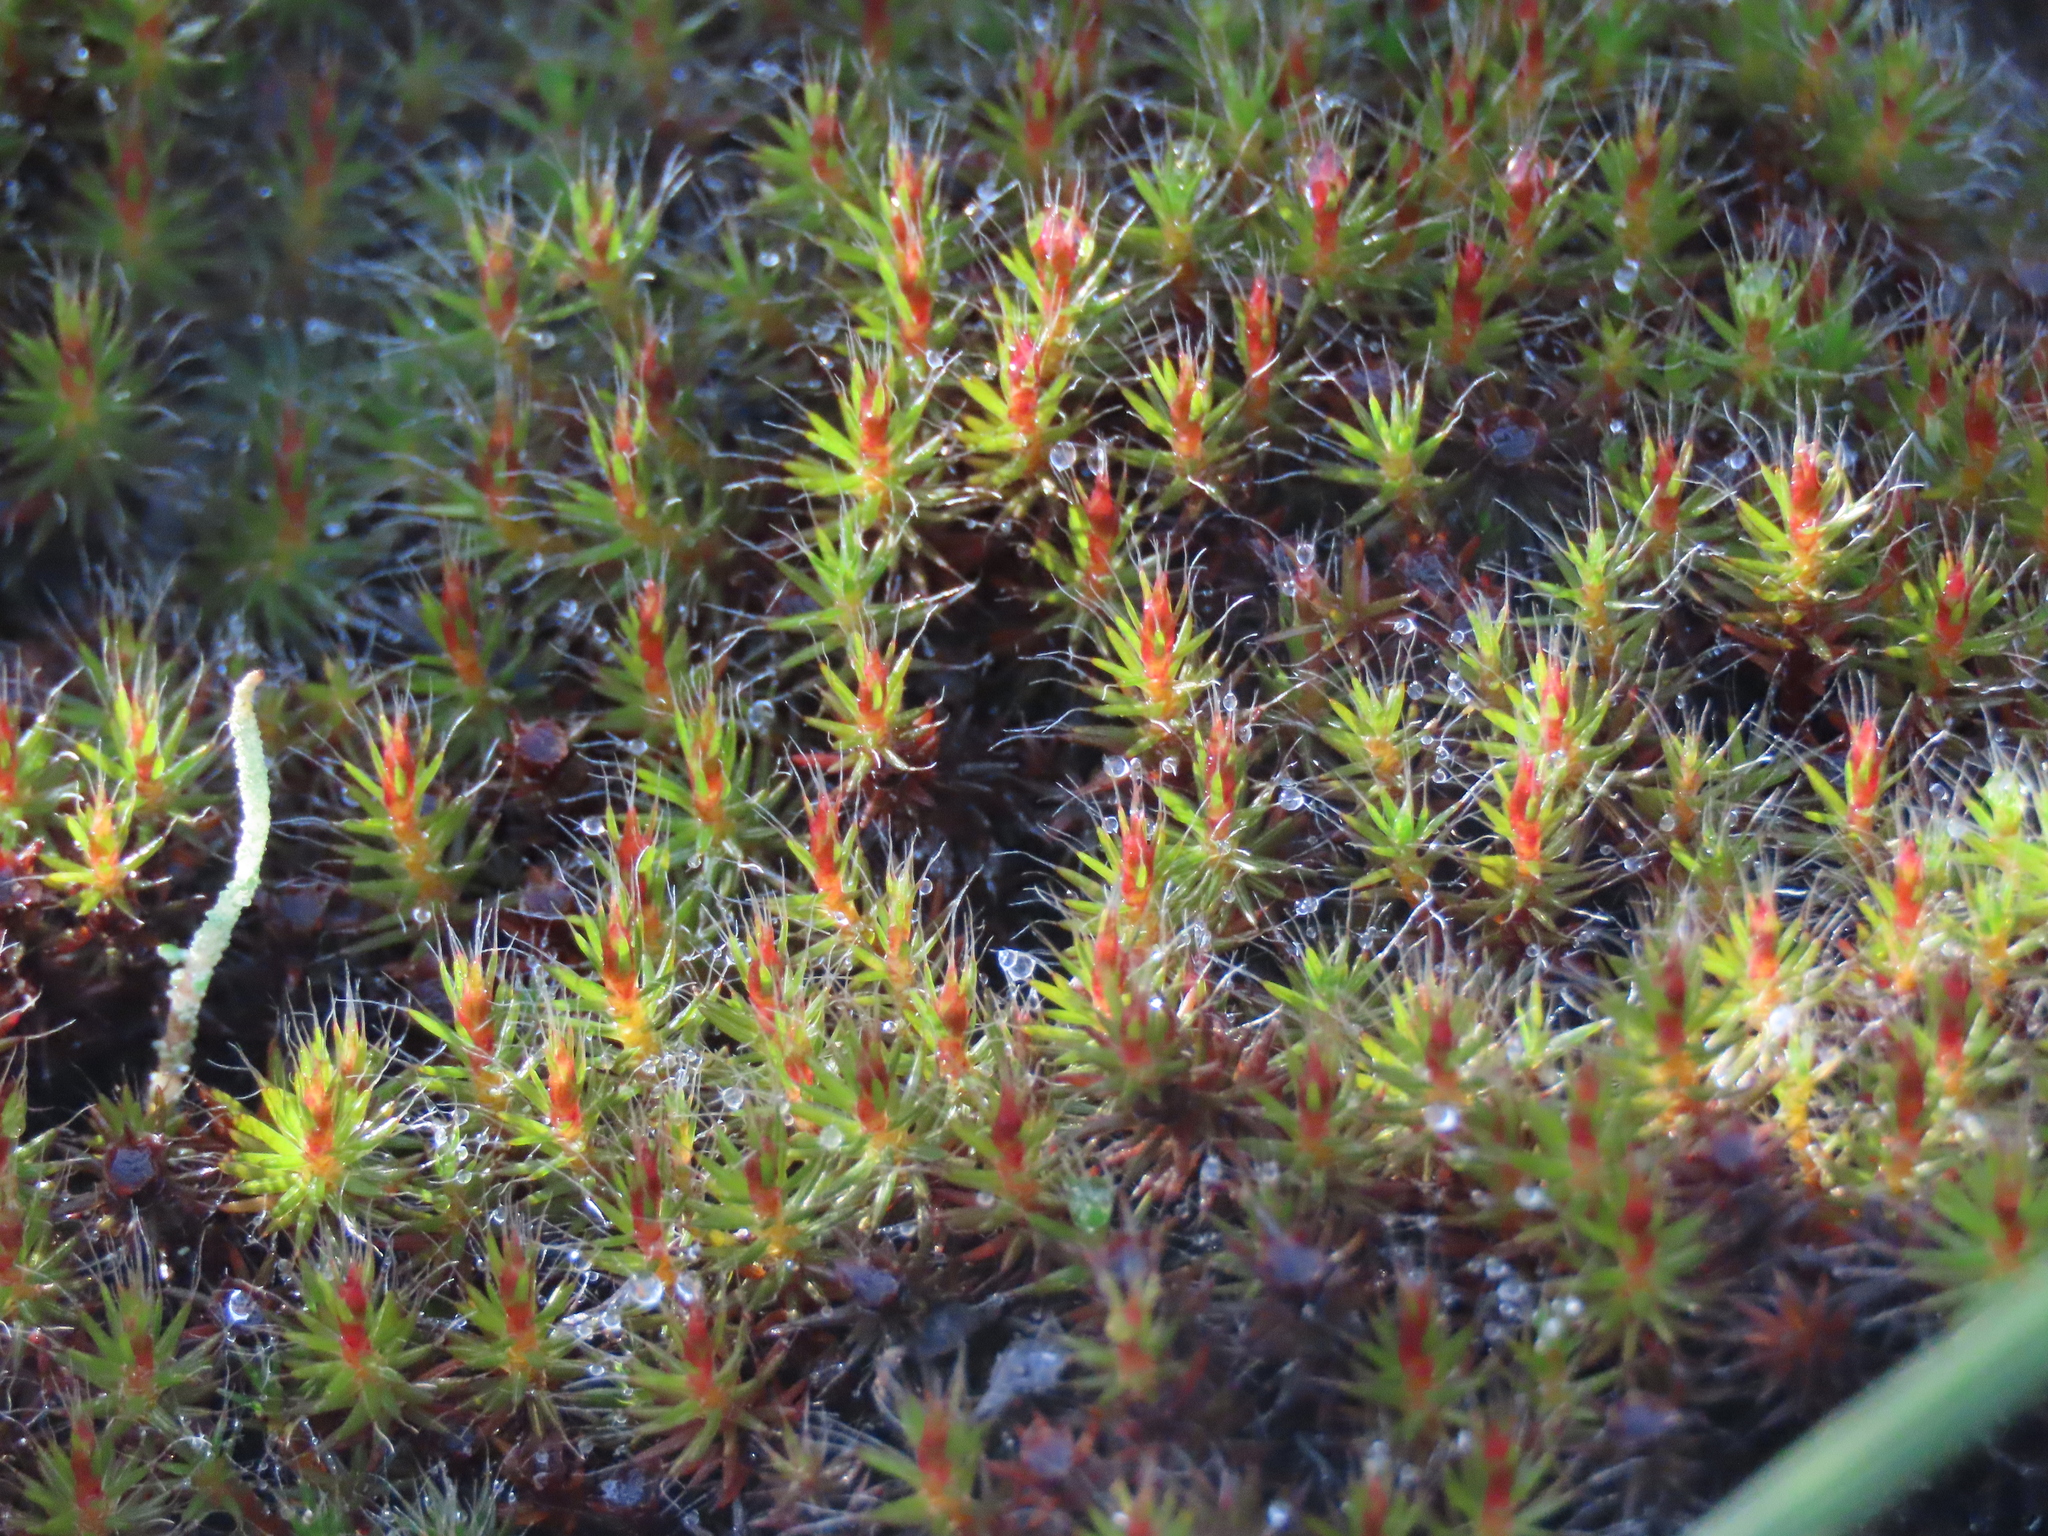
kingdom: Plantae
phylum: Bryophyta
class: Polytrichopsida
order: Polytrichales
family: Polytrichaceae
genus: Polytrichum
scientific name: Polytrichum piliferum
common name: Bristly haircap
